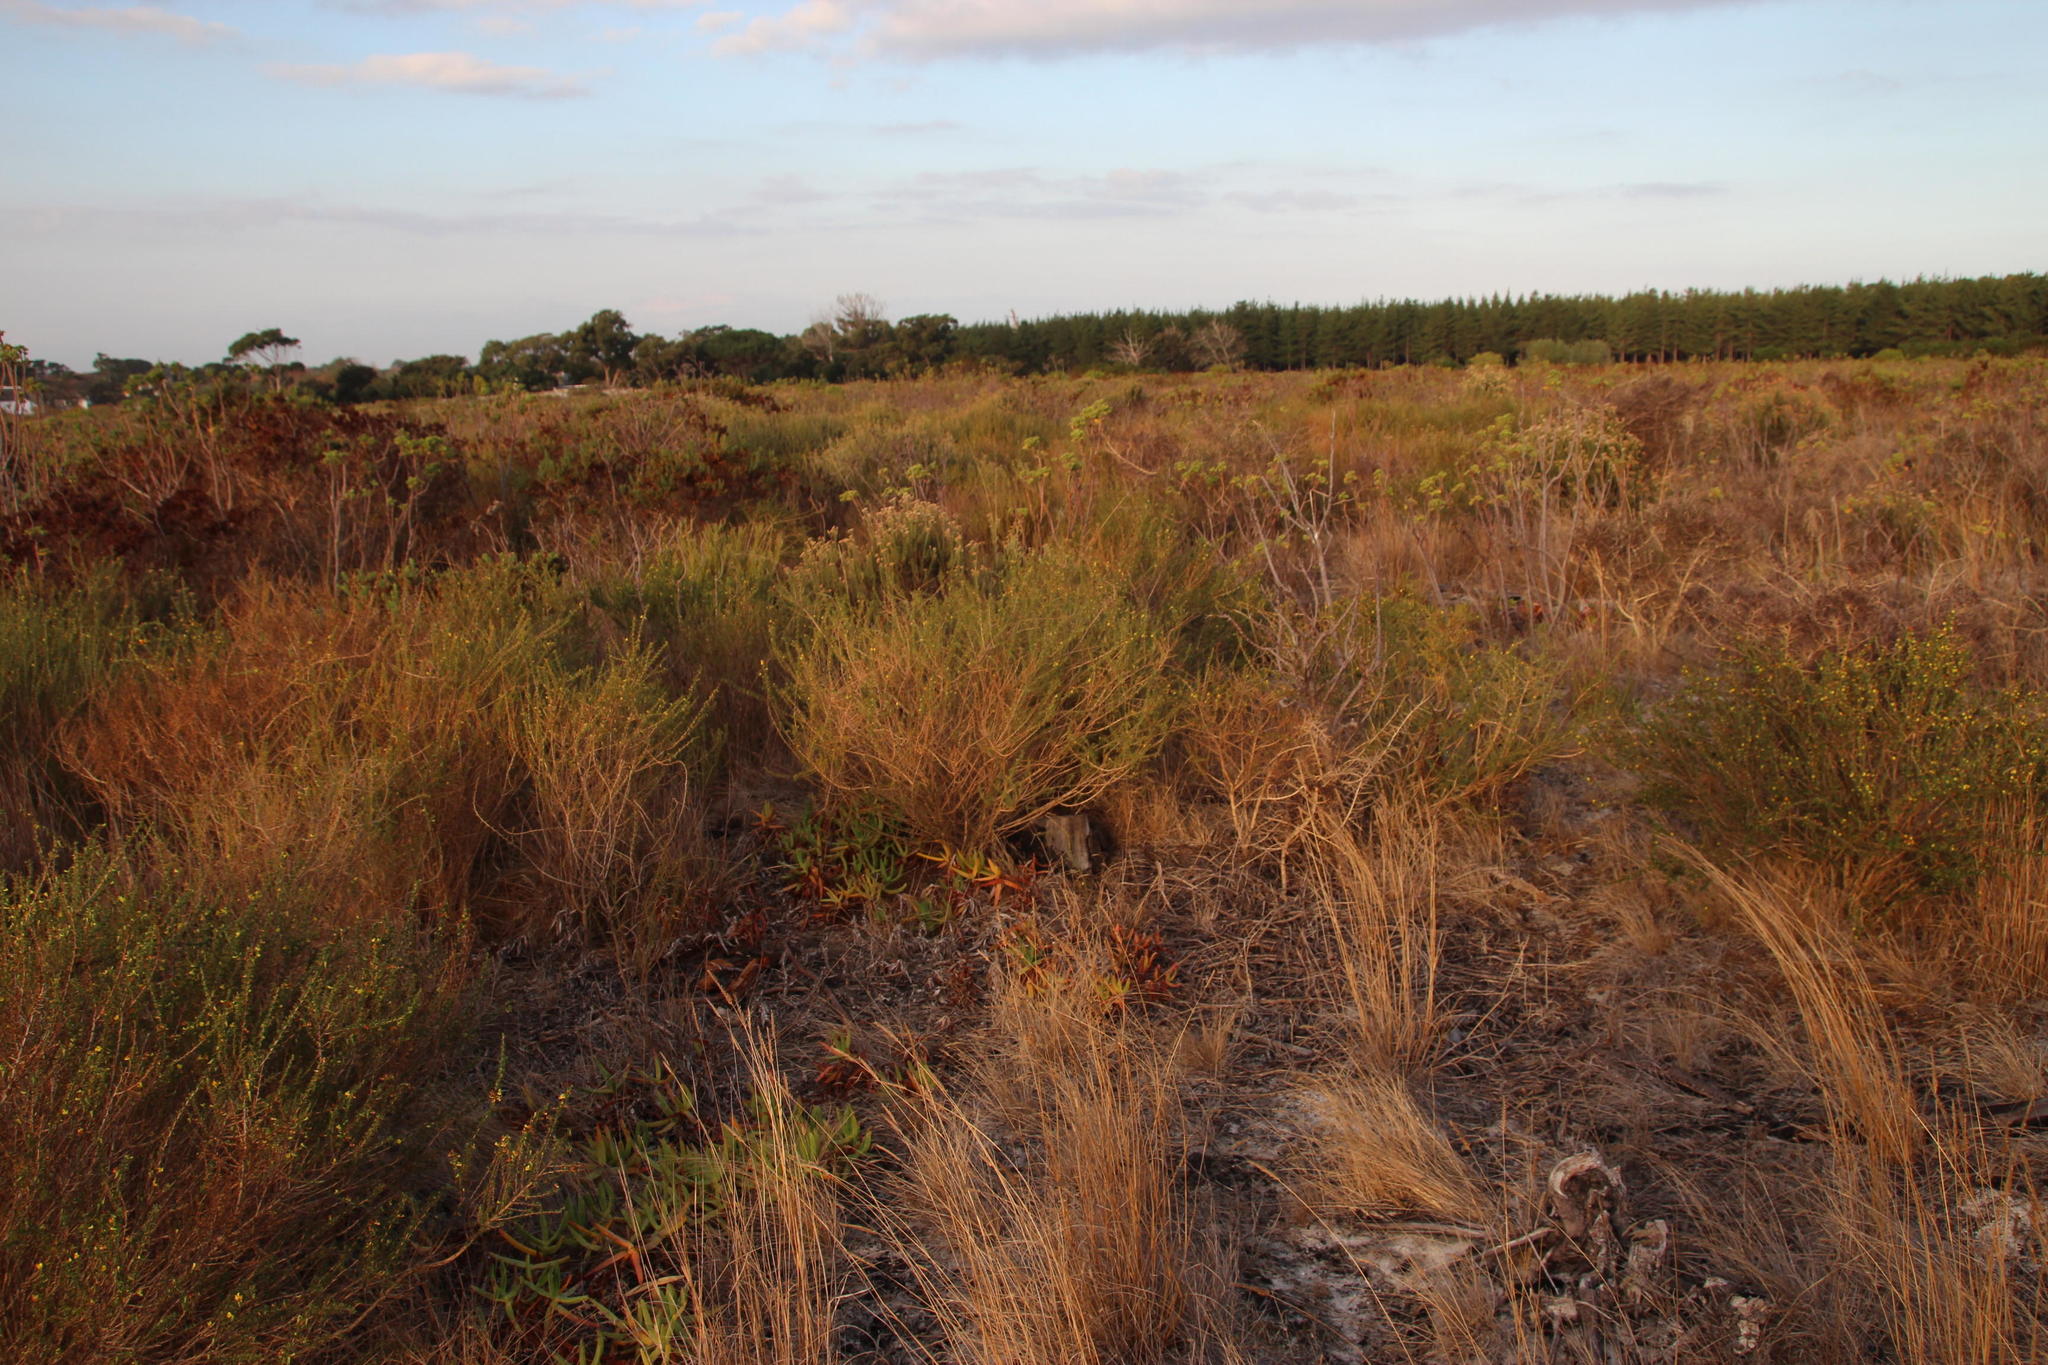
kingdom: Plantae
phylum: Tracheophyta
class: Magnoliopsida
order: Fabales
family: Fabaceae
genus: Aspalathus
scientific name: Aspalathus spinosa
